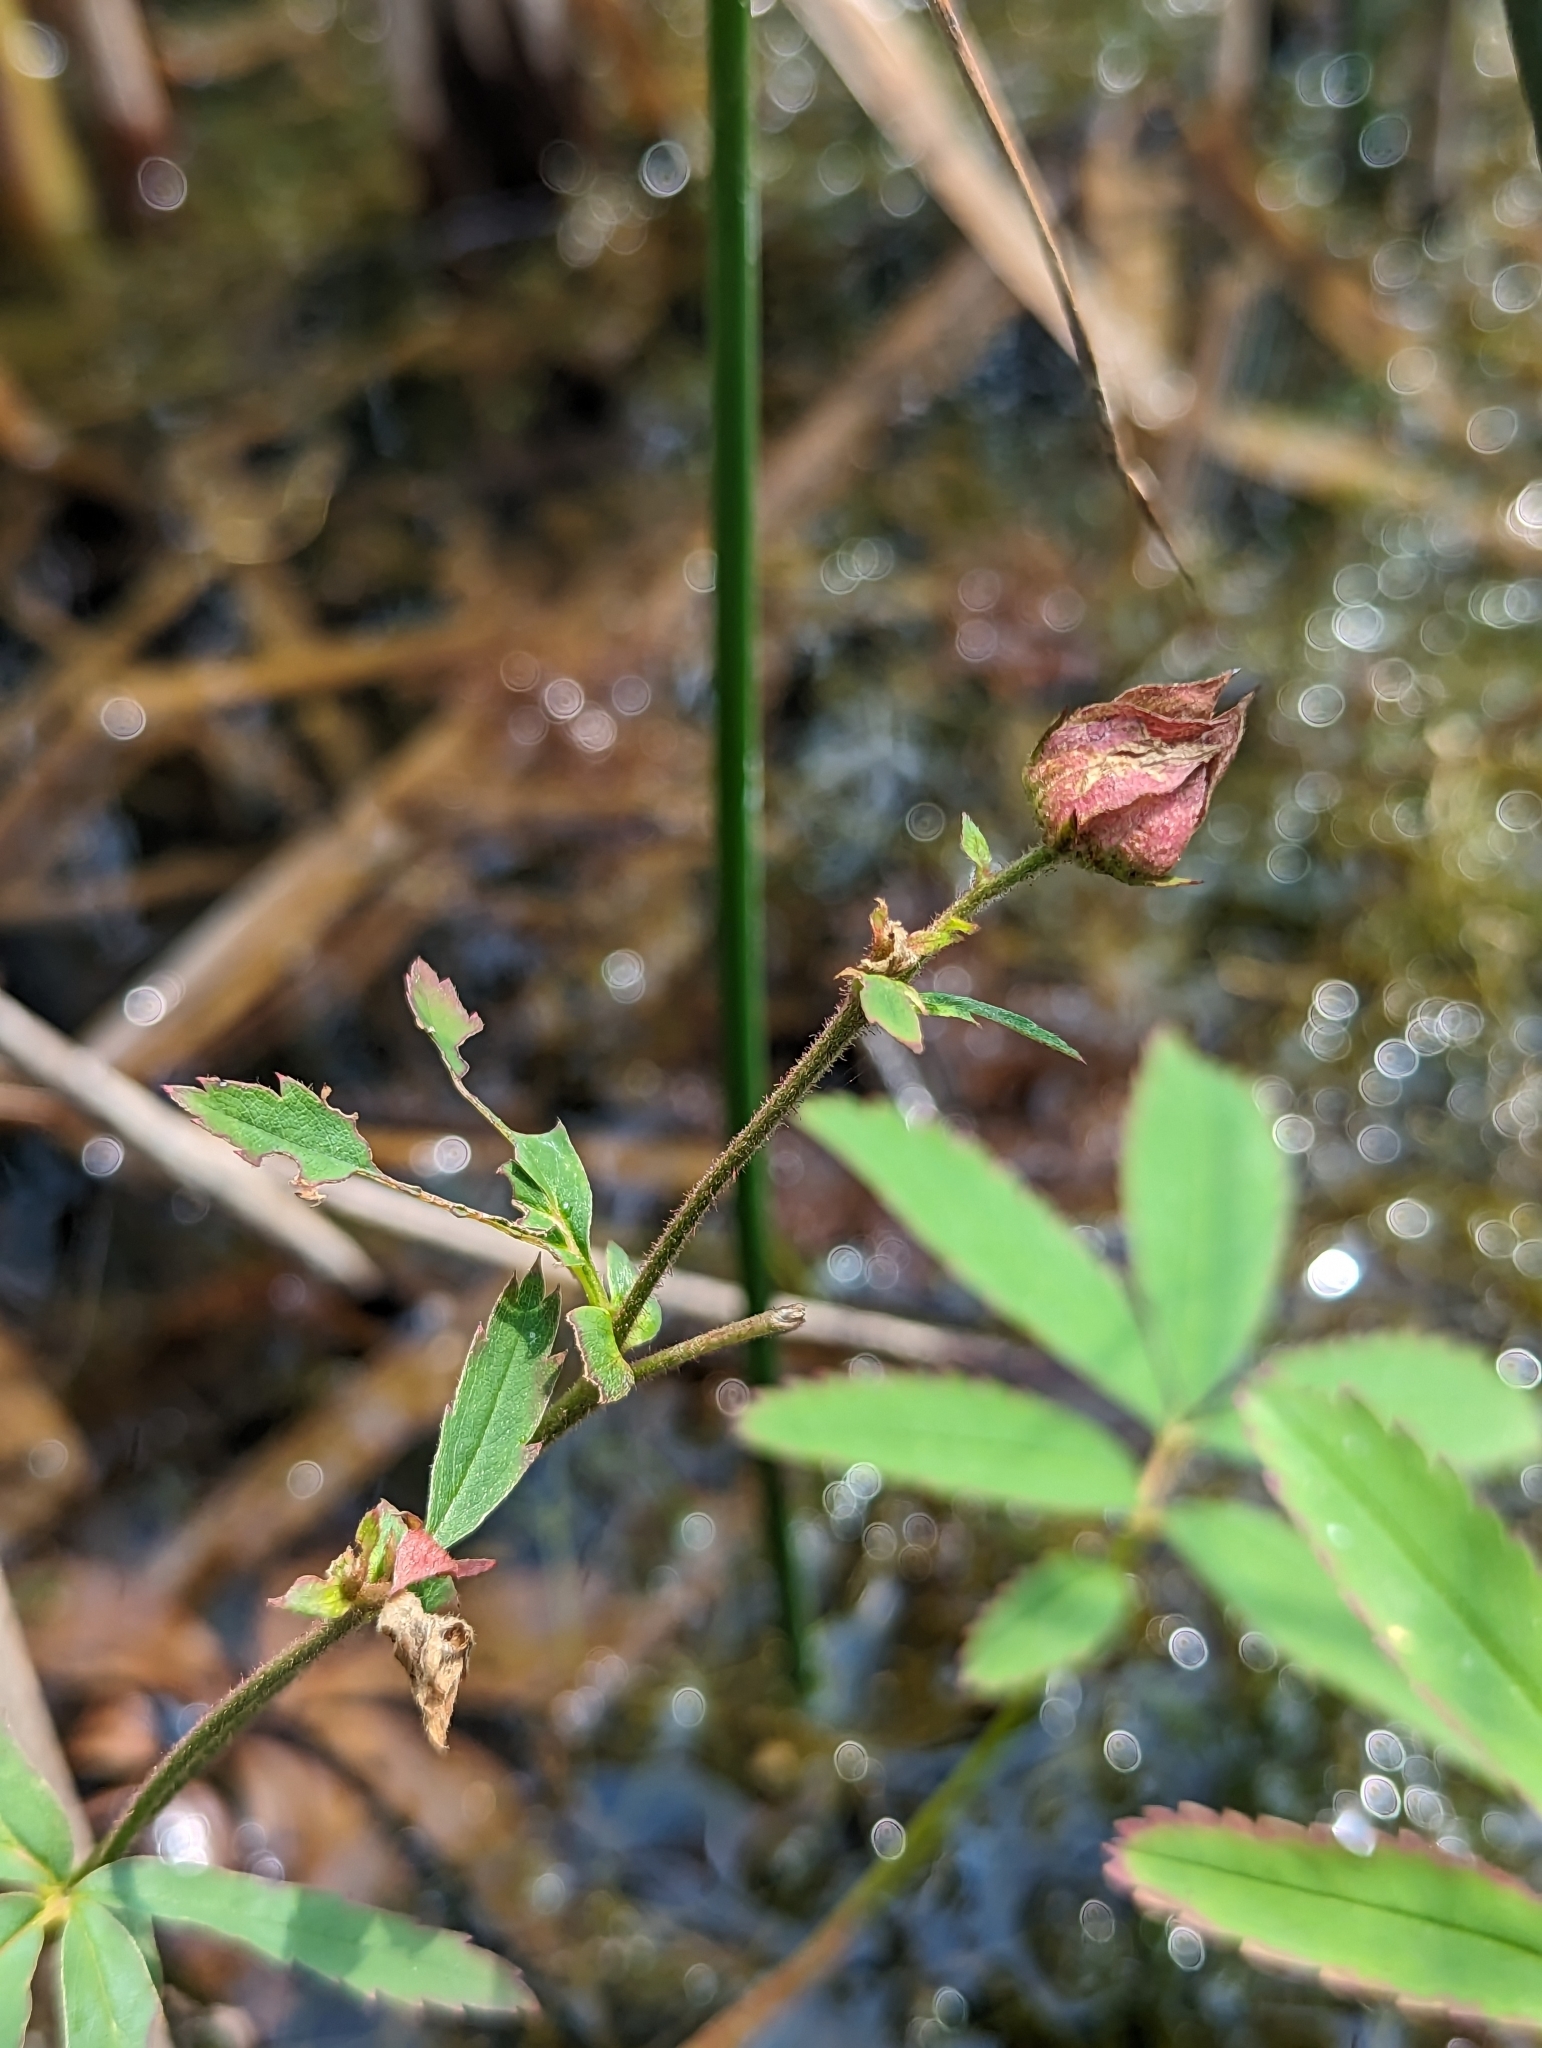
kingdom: Plantae
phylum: Tracheophyta
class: Magnoliopsida
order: Rosales
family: Rosaceae
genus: Comarum
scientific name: Comarum palustre
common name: Marsh cinquefoil
